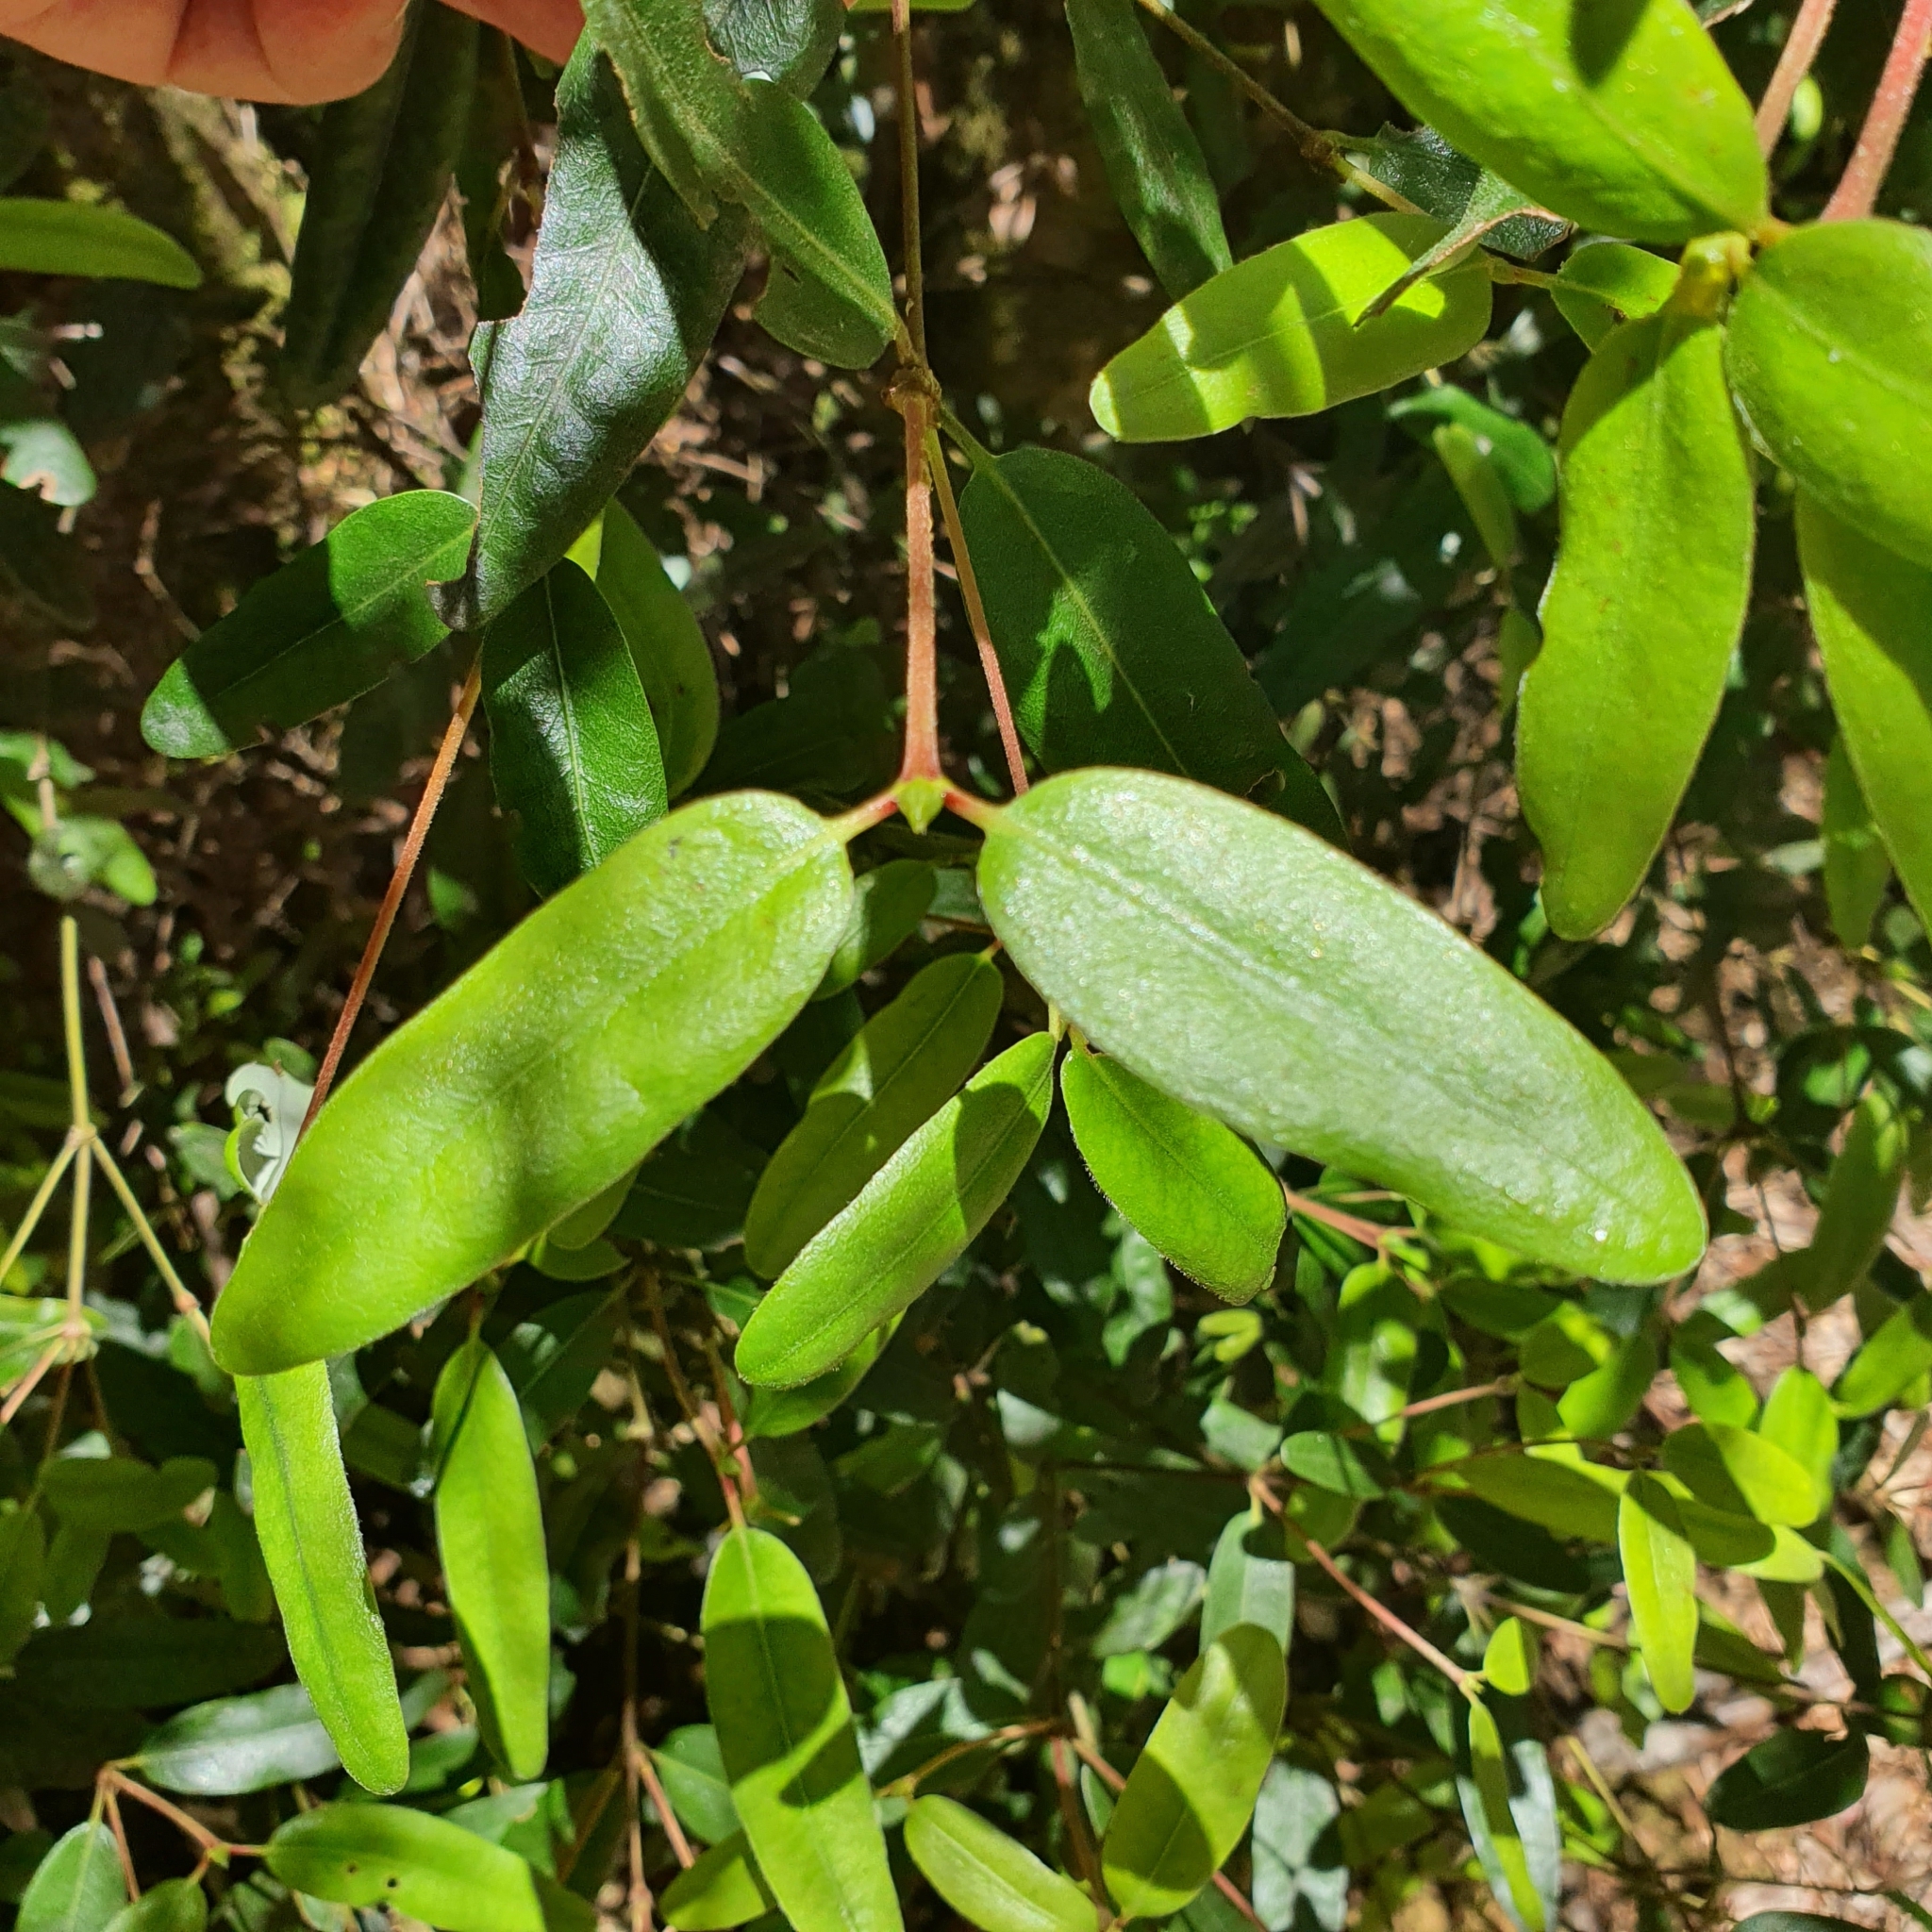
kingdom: Plantae
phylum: Tracheophyta
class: Magnoliopsida
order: Oxalidales
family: Cunoniaceae
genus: Eucryphia
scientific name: Eucryphia lucida
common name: Leatherwood
